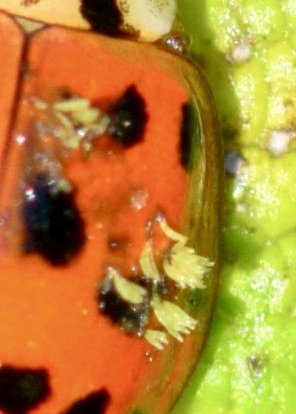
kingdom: Fungi
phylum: Ascomycota
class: Laboulbeniomycetes
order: Laboulbeniales
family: Laboulbeniaceae
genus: Hesperomyces
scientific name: Hesperomyces harmoniae
